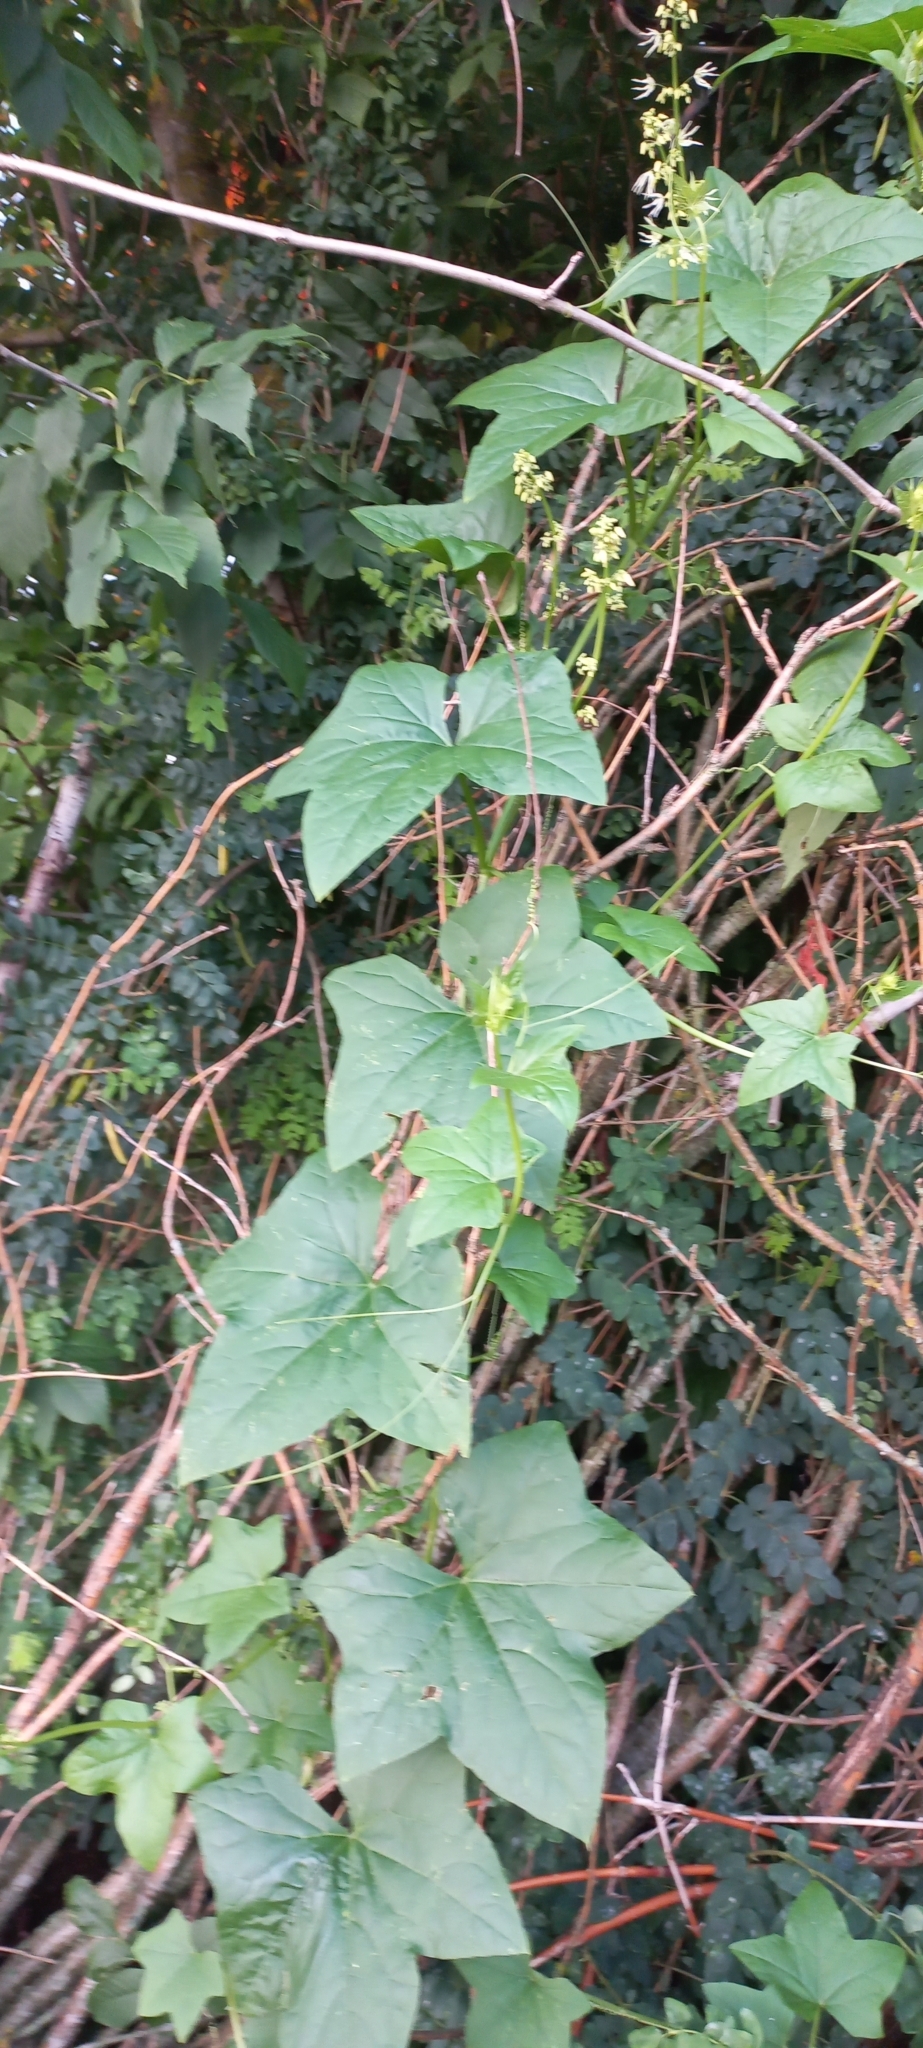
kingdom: Plantae
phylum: Tracheophyta
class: Magnoliopsida
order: Cucurbitales
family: Cucurbitaceae
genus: Echinocystis
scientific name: Echinocystis lobata
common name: Wild cucumber
